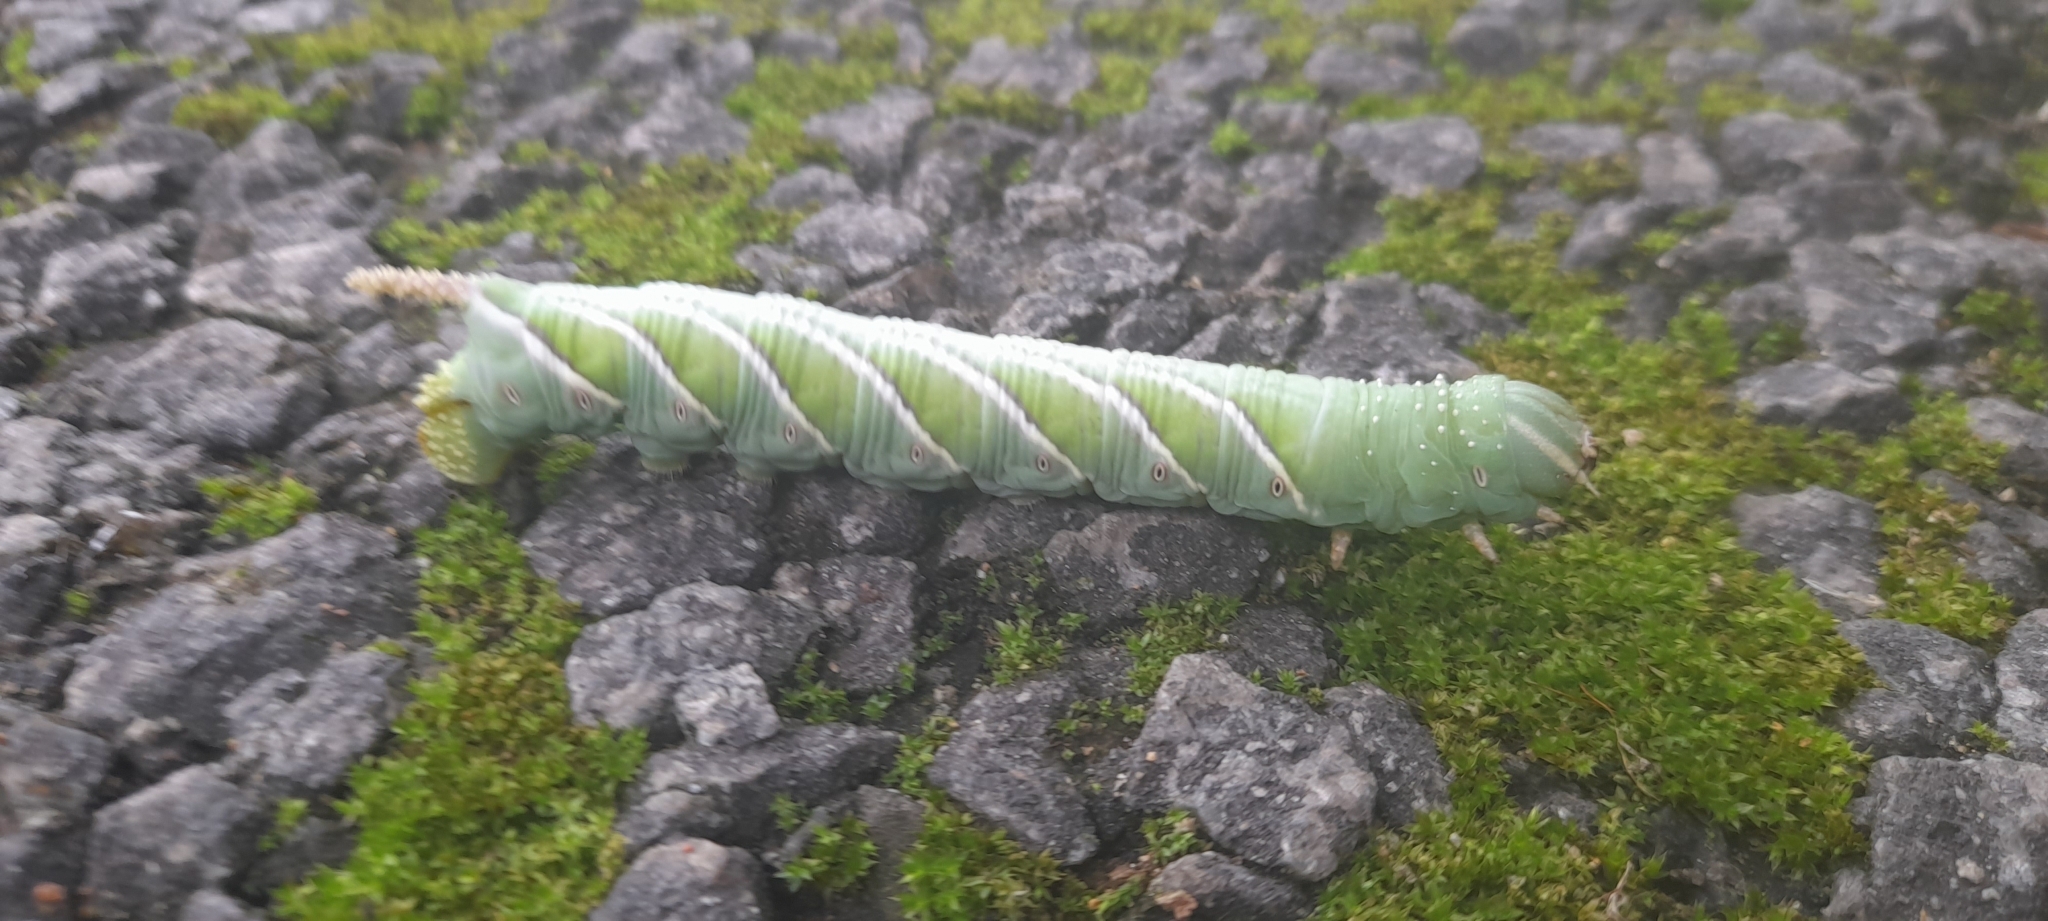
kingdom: Animalia
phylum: Arthropoda
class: Insecta
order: Lepidoptera
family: Sphingidae
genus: Psilogramma
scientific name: Psilogramma increta
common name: Gray hawk moth
